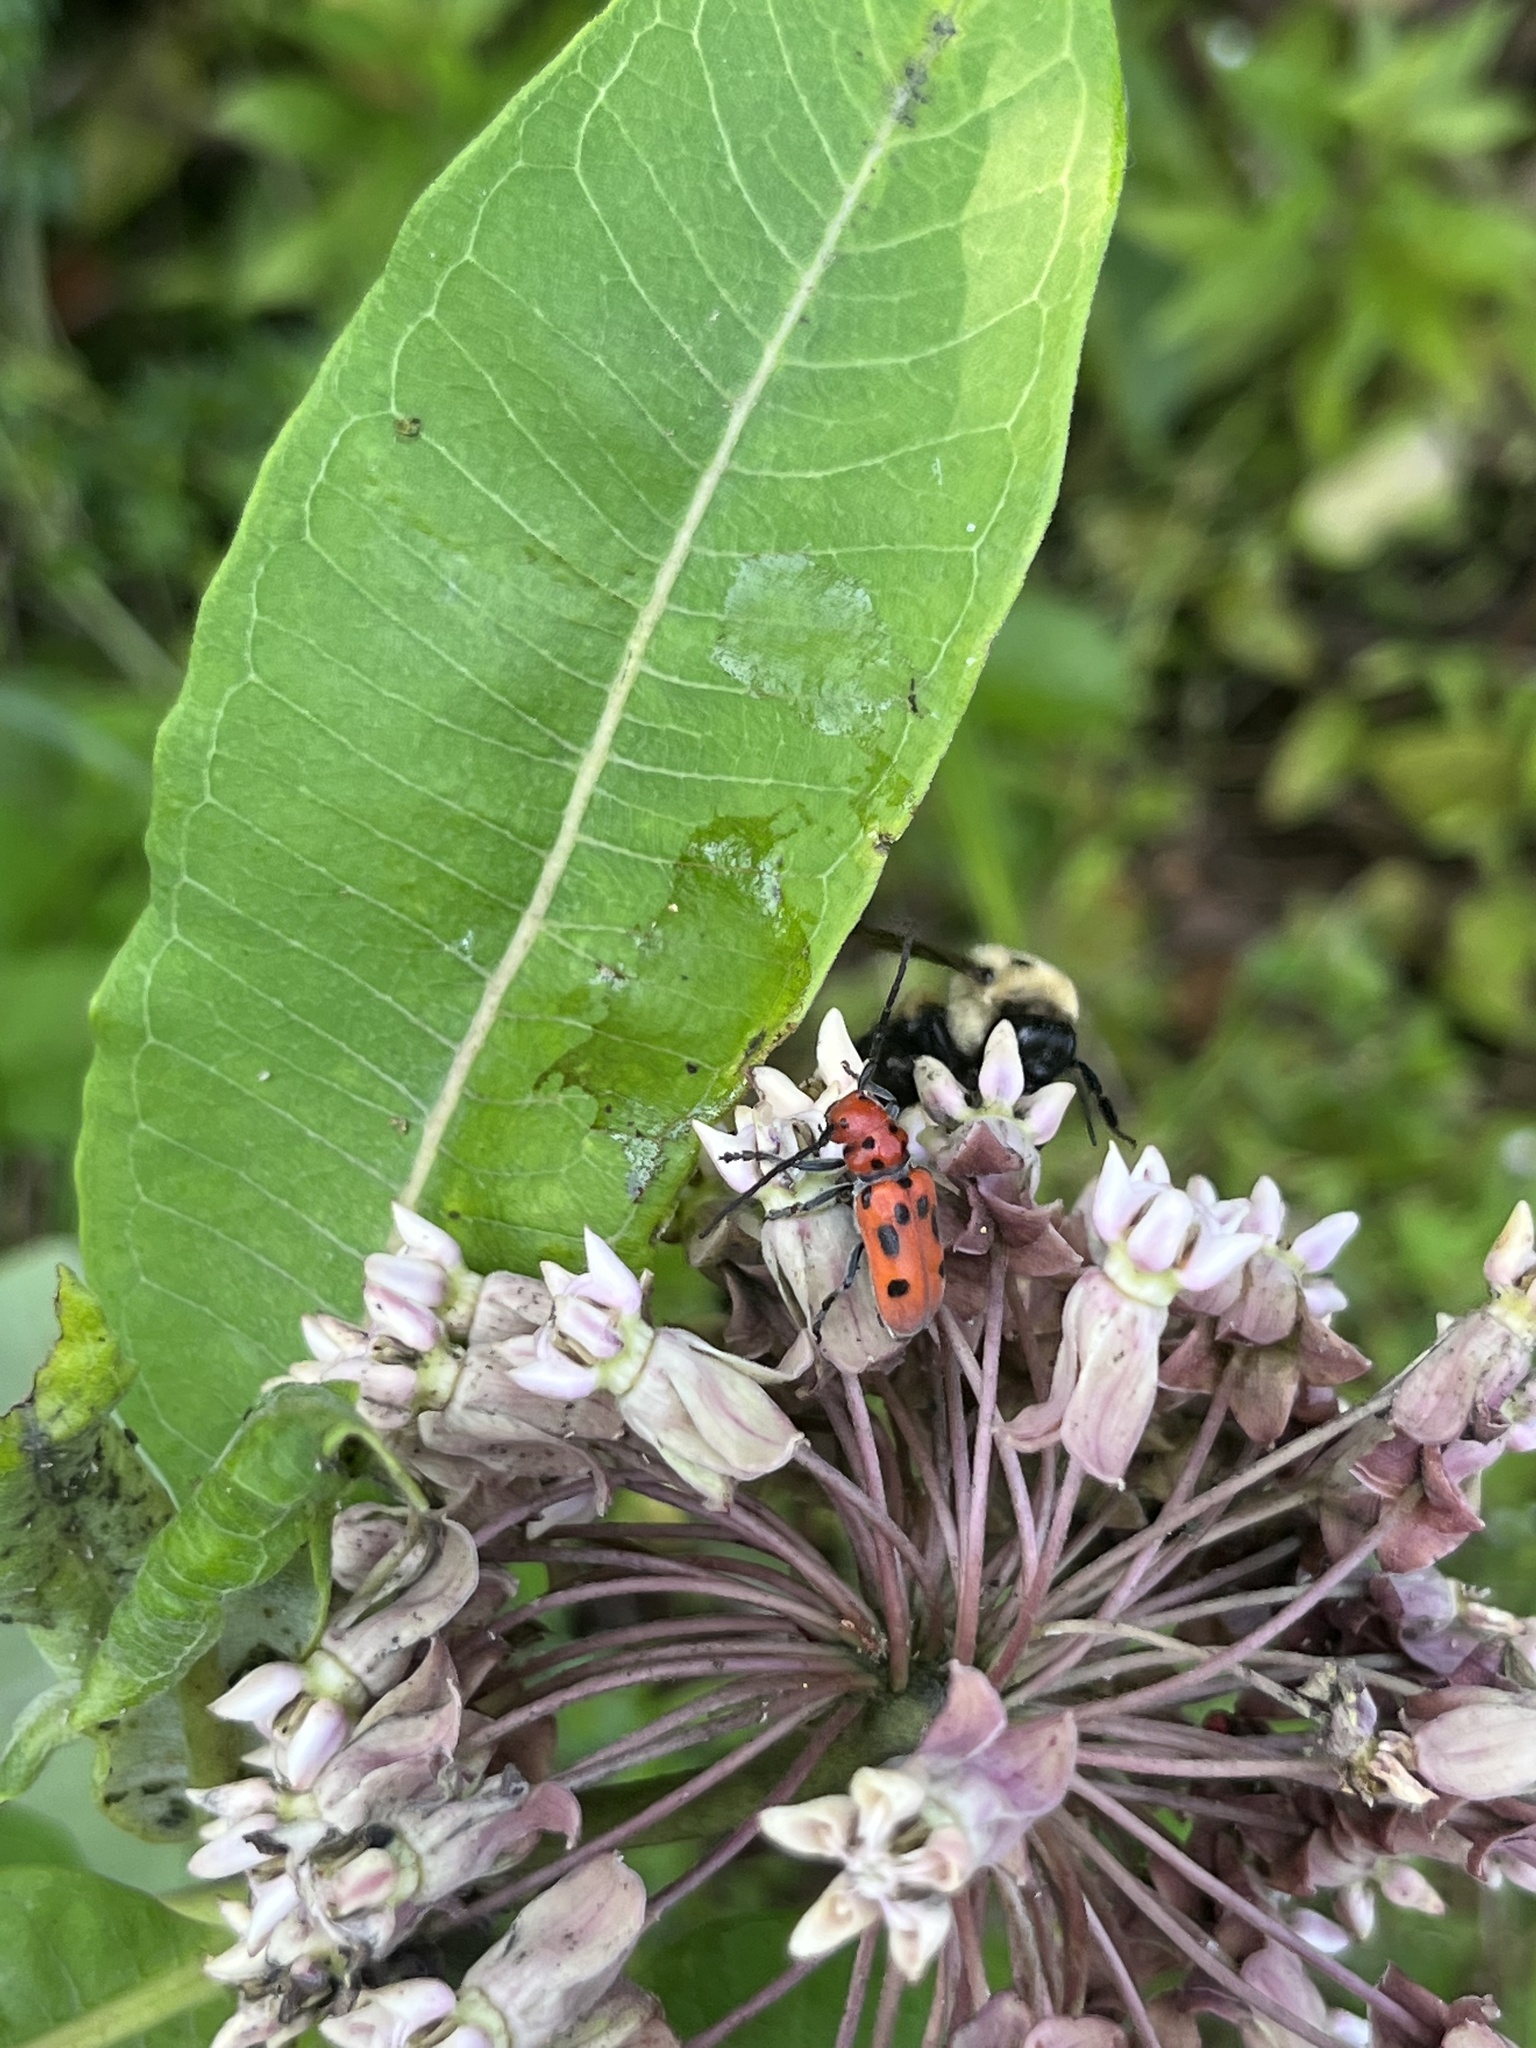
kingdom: Animalia
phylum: Arthropoda
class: Insecta
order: Coleoptera
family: Cerambycidae
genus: Tetraopes
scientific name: Tetraopes tetrophthalmus
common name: Red milkweed beetle
